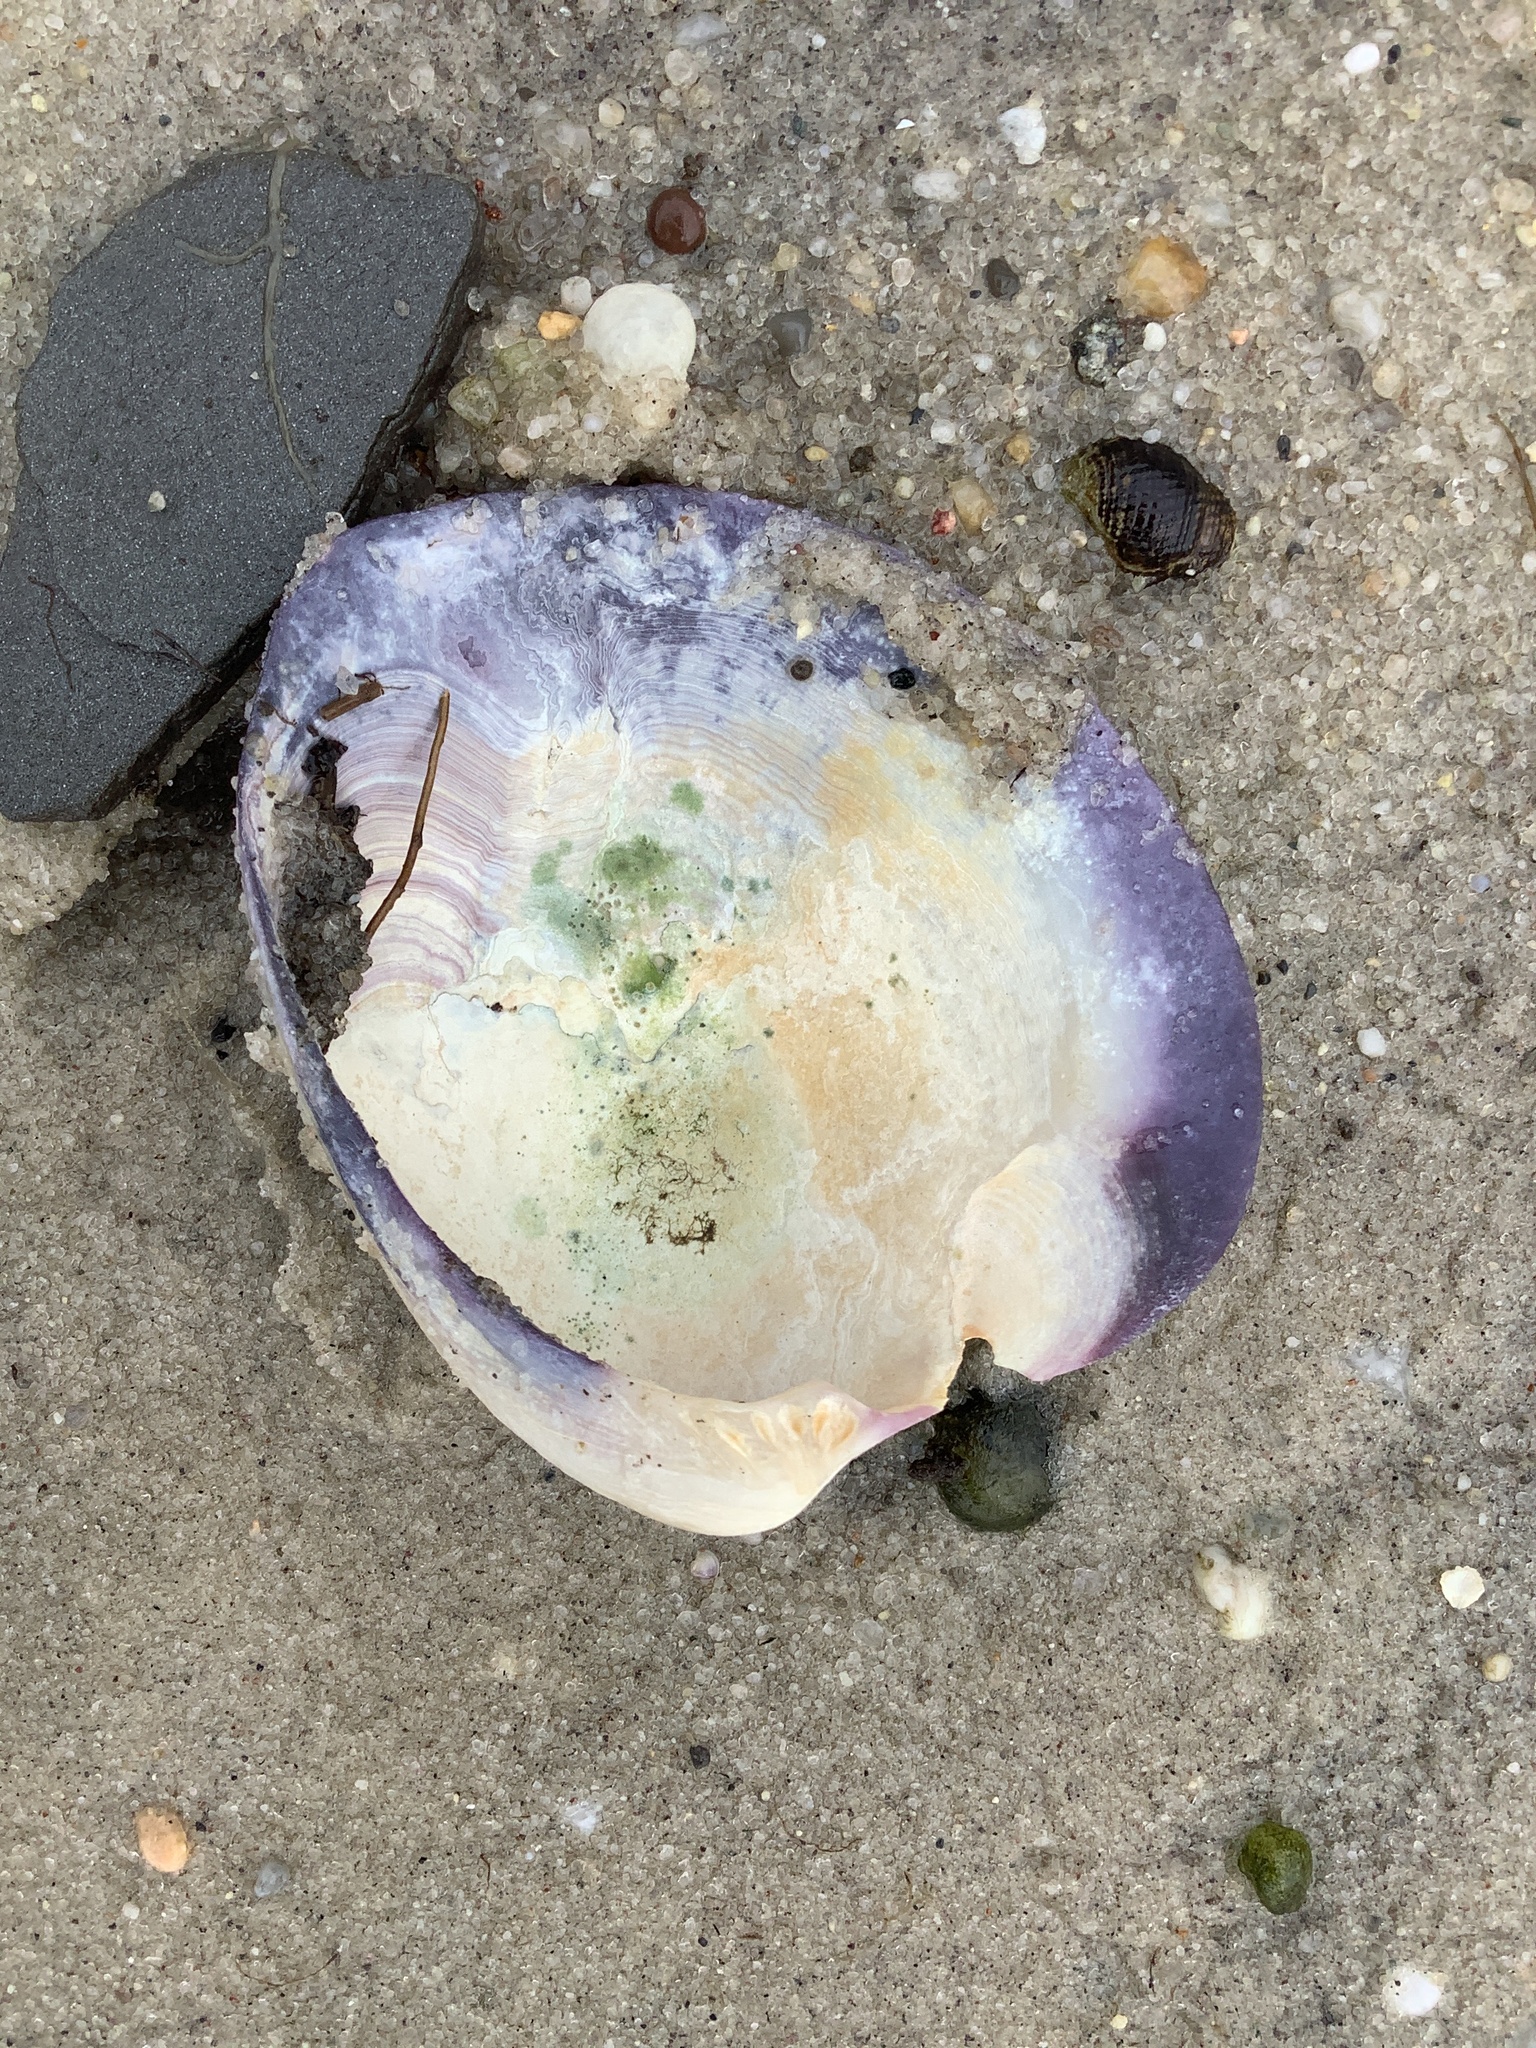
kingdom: Animalia
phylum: Mollusca
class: Bivalvia
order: Venerida
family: Veneridae
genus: Mercenaria
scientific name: Mercenaria mercenaria
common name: American hard-shelled clam
